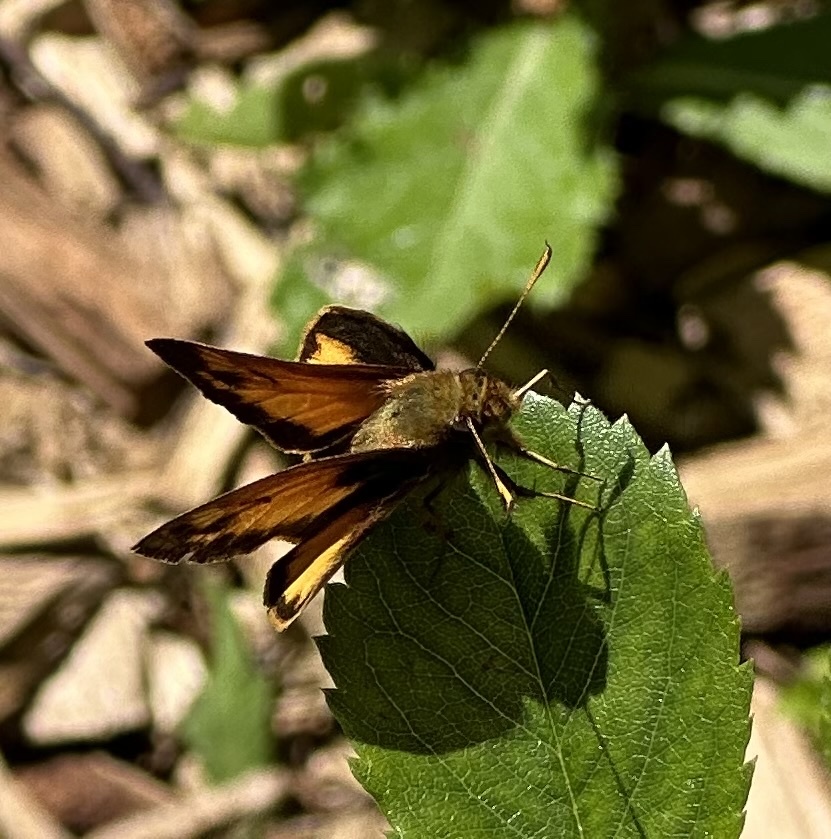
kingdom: Animalia
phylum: Arthropoda
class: Insecta
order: Lepidoptera
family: Hesperiidae
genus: Lon
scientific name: Lon zabulon
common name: Zabulon skipper
